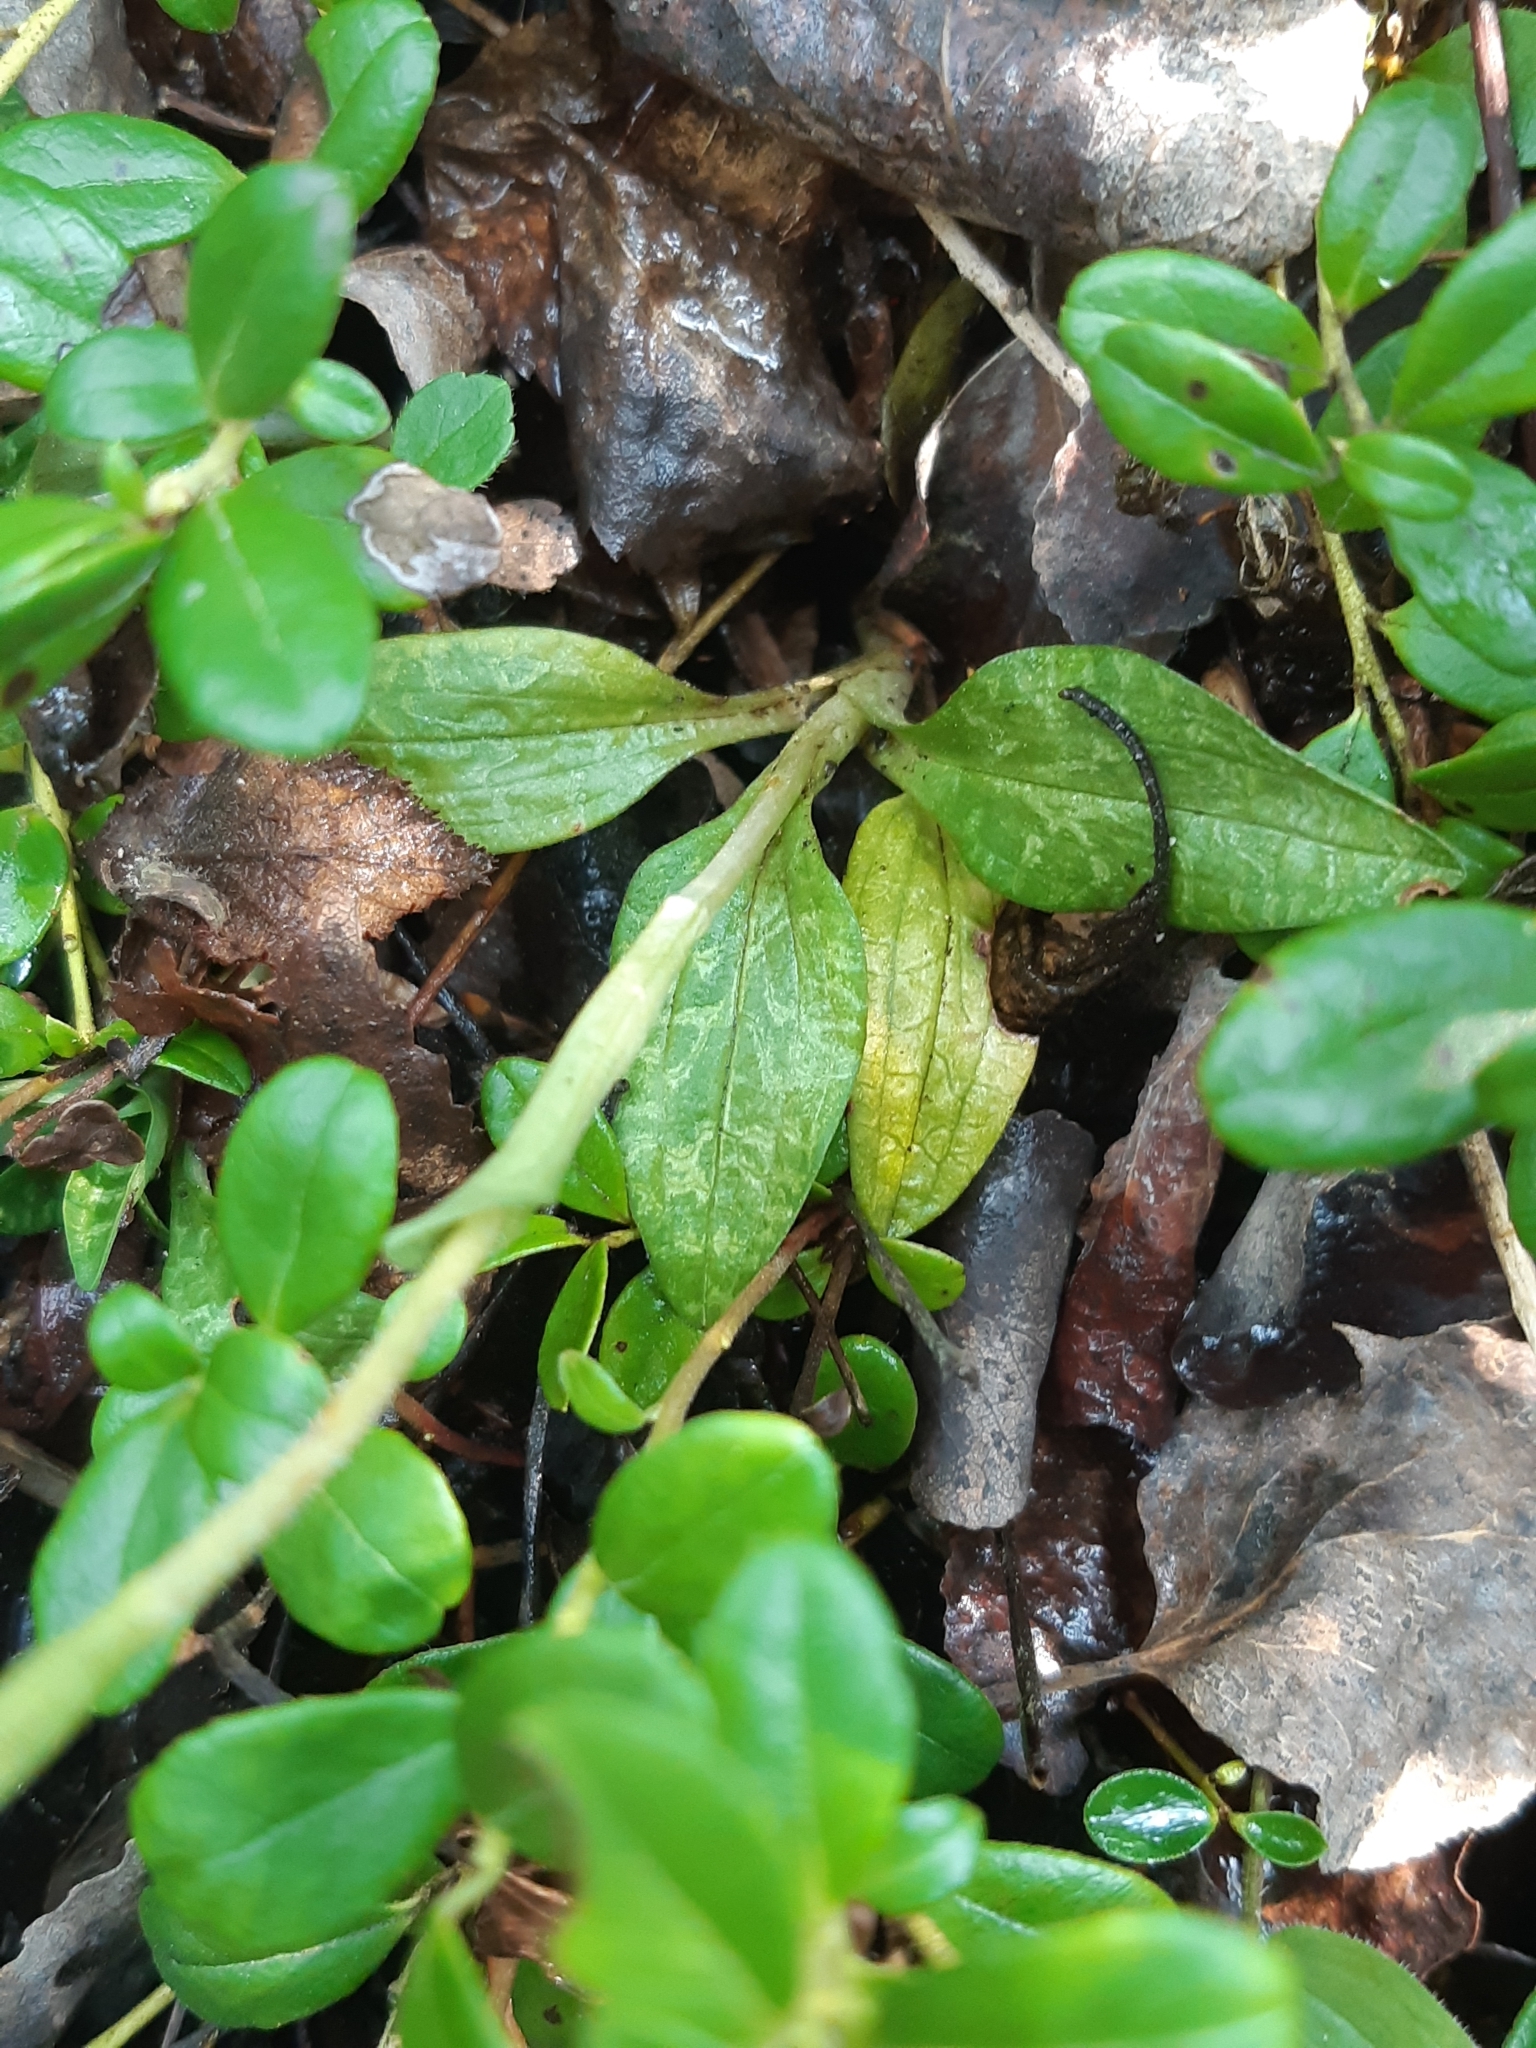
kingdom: Plantae
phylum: Tracheophyta
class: Liliopsida
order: Asparagales
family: Orchidaceae
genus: Goodyera
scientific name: Goodyera repens
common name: Creeping lady's-tresses
